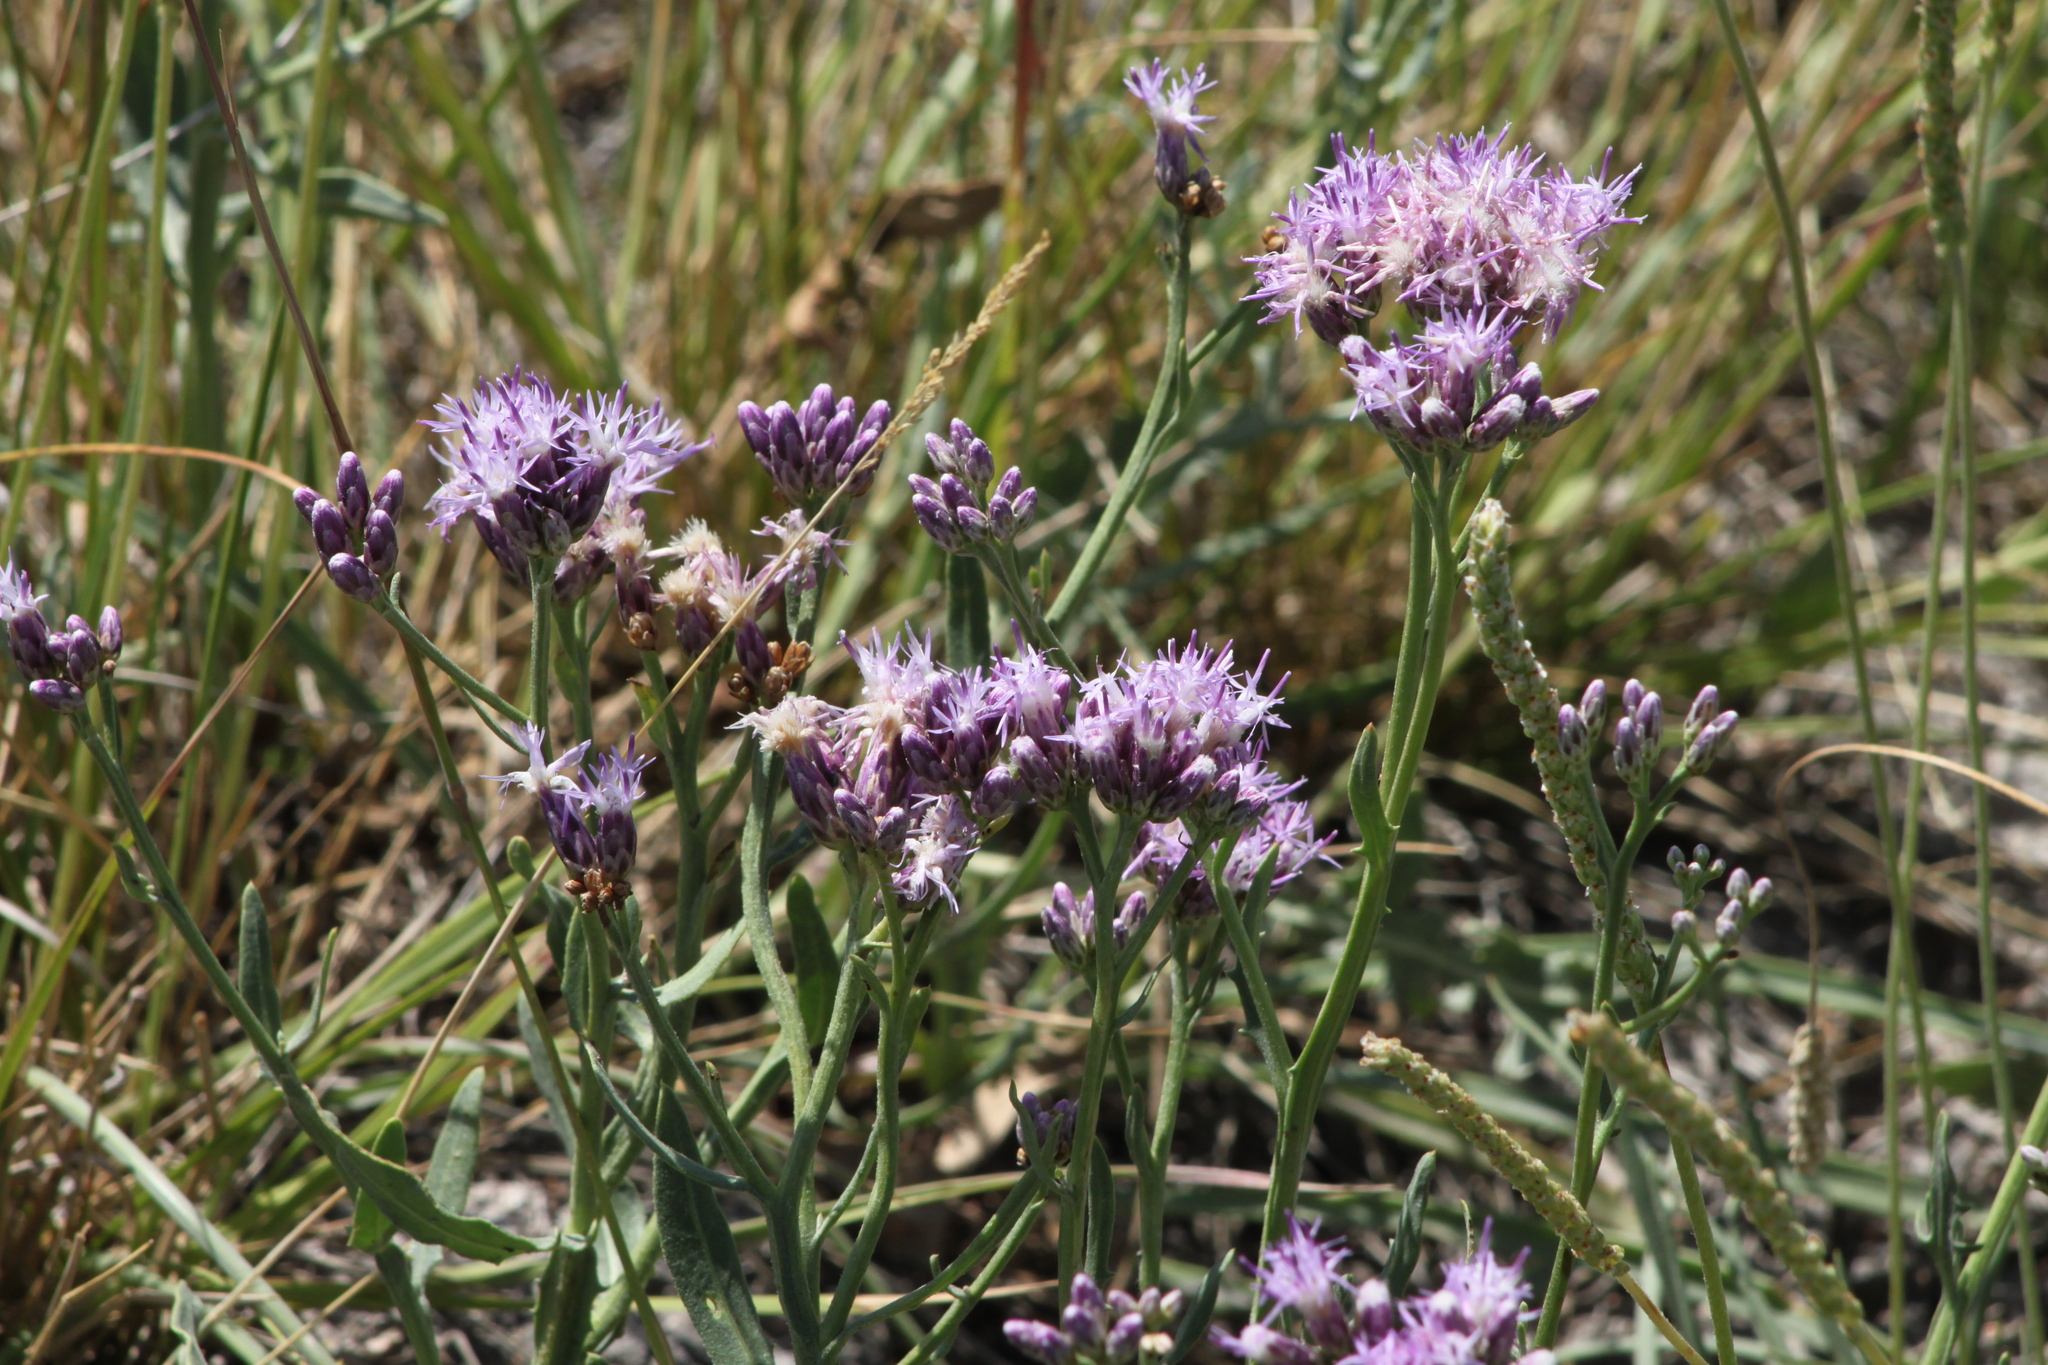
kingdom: Plantae
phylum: Tracheophyta
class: Magnoliopsida
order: Asterales
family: Asteraceae
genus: Saussurea
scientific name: Saussurea salsa
